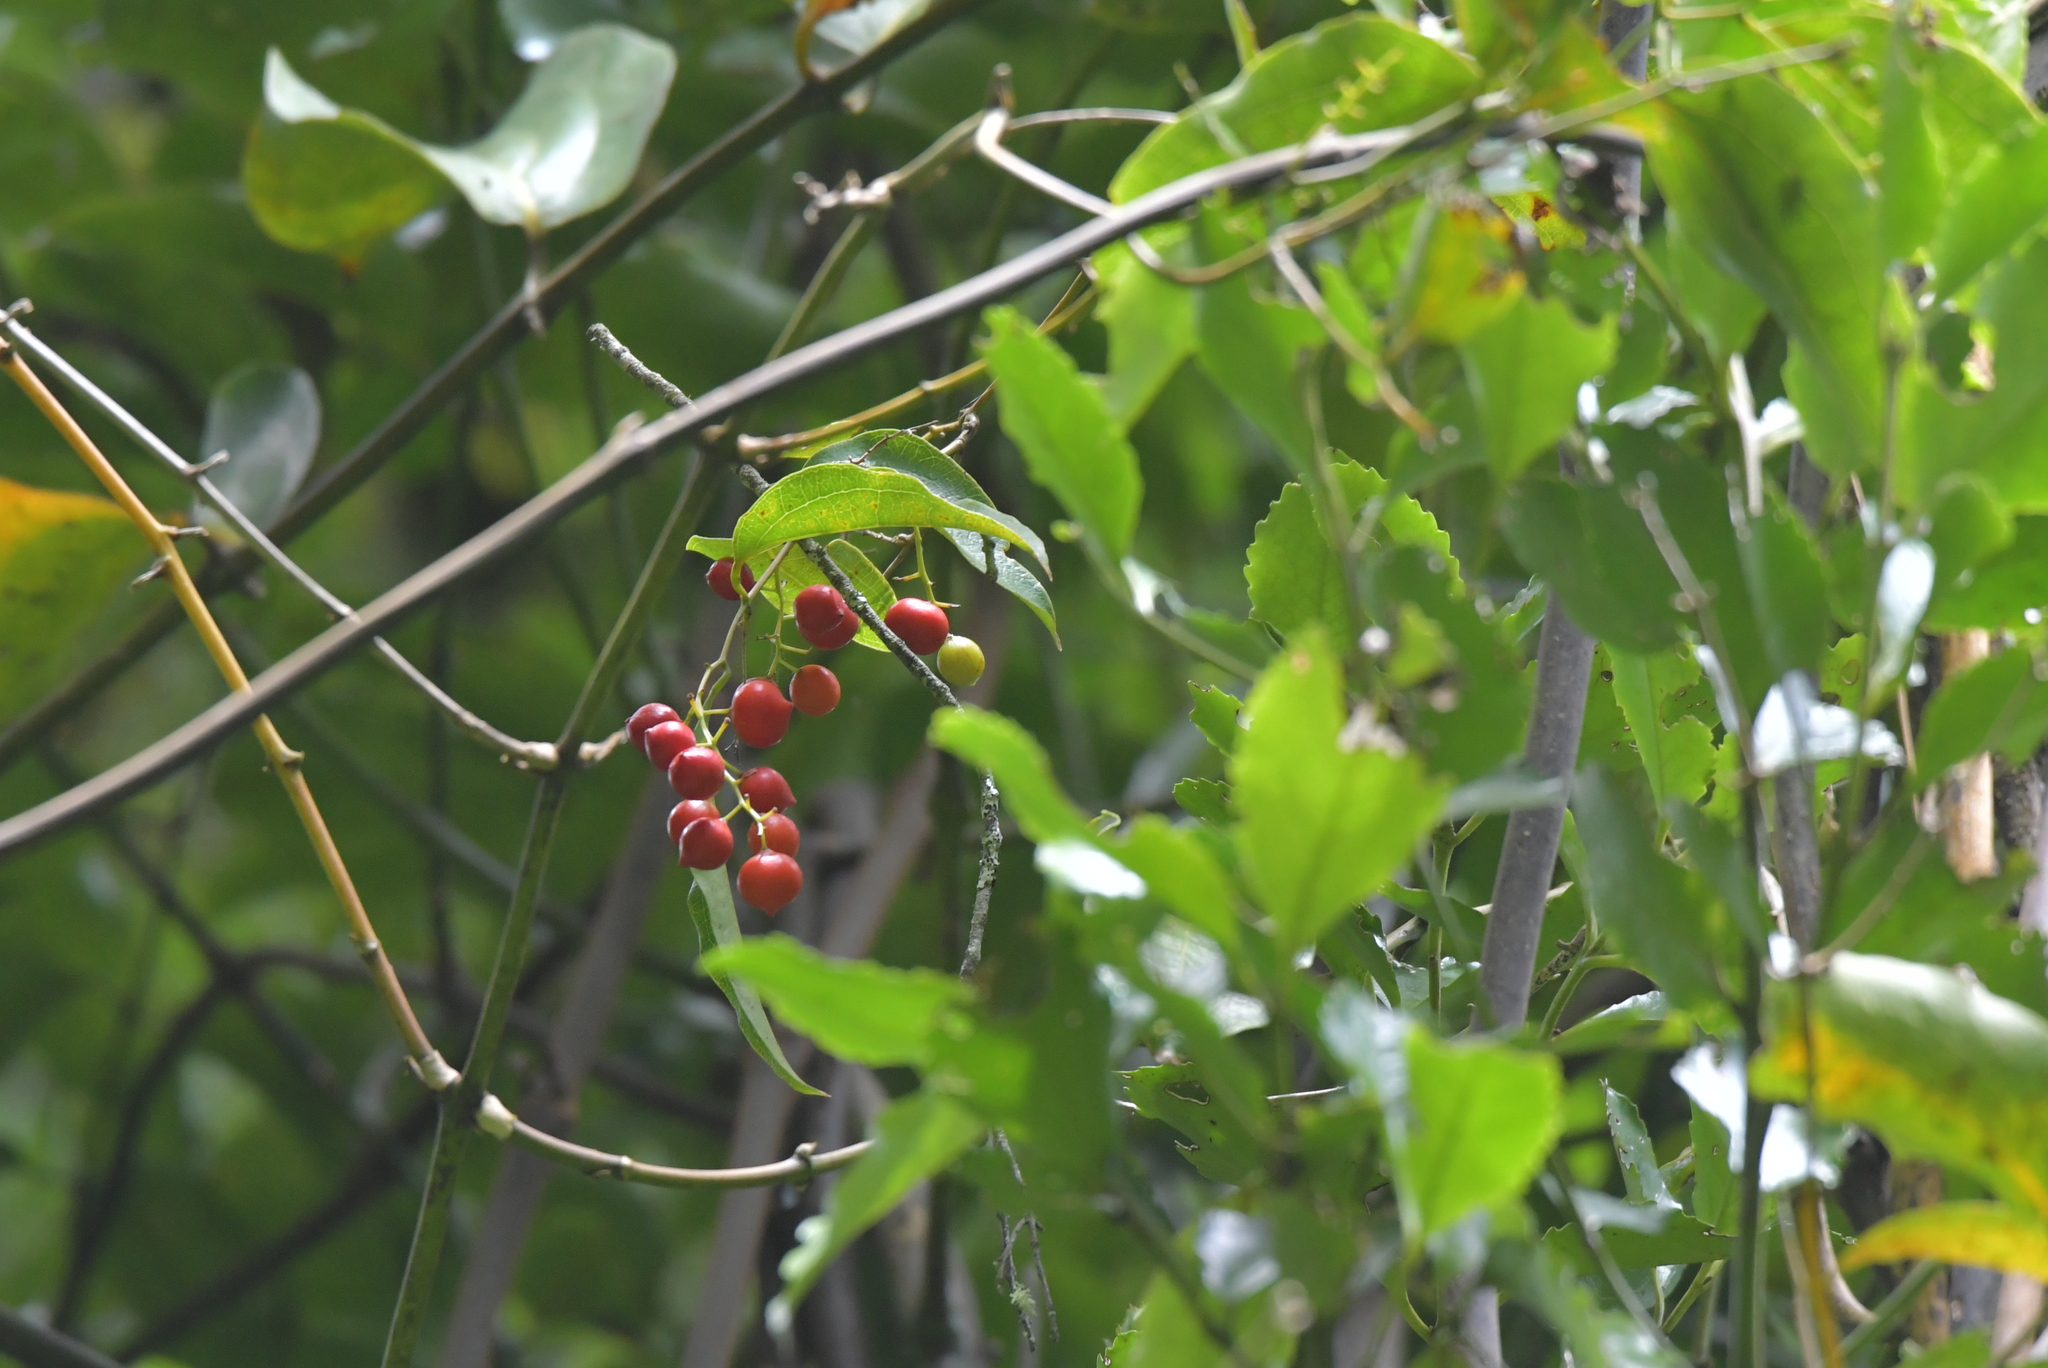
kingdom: Plantae
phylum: Tracheophyta
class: Liliopsida
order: Liliales
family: Ripogonaceae
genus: Ripogonum
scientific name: Ripogonum scandens
